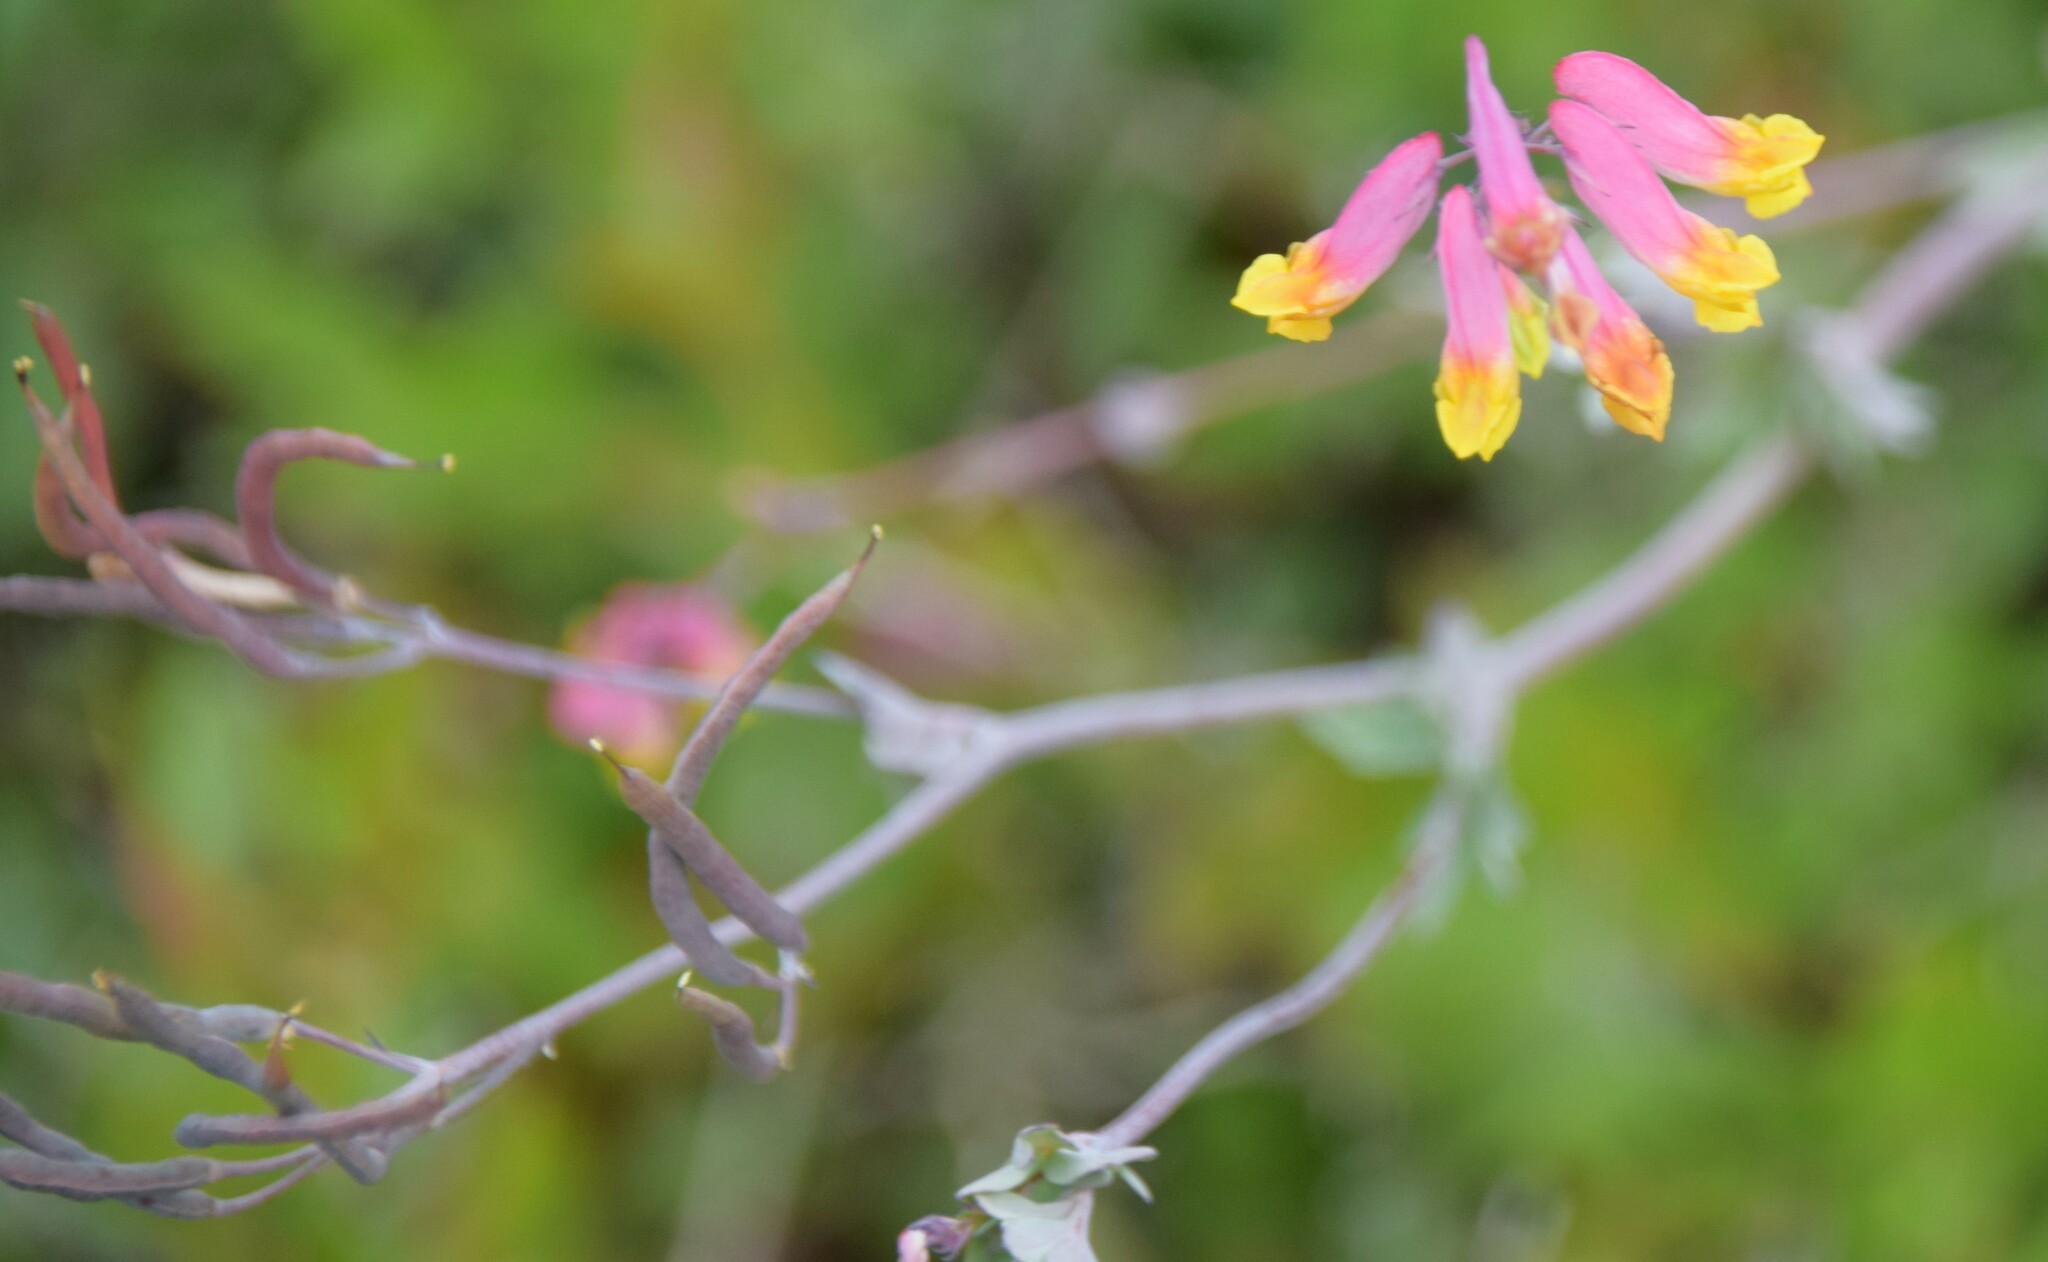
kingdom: Plantae
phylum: Tracheophyta
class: Magnoliopsida
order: Ranunculales
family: Papaveraceae
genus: Capnoides
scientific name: Capnoides sempervirens
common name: Rock harlequin
